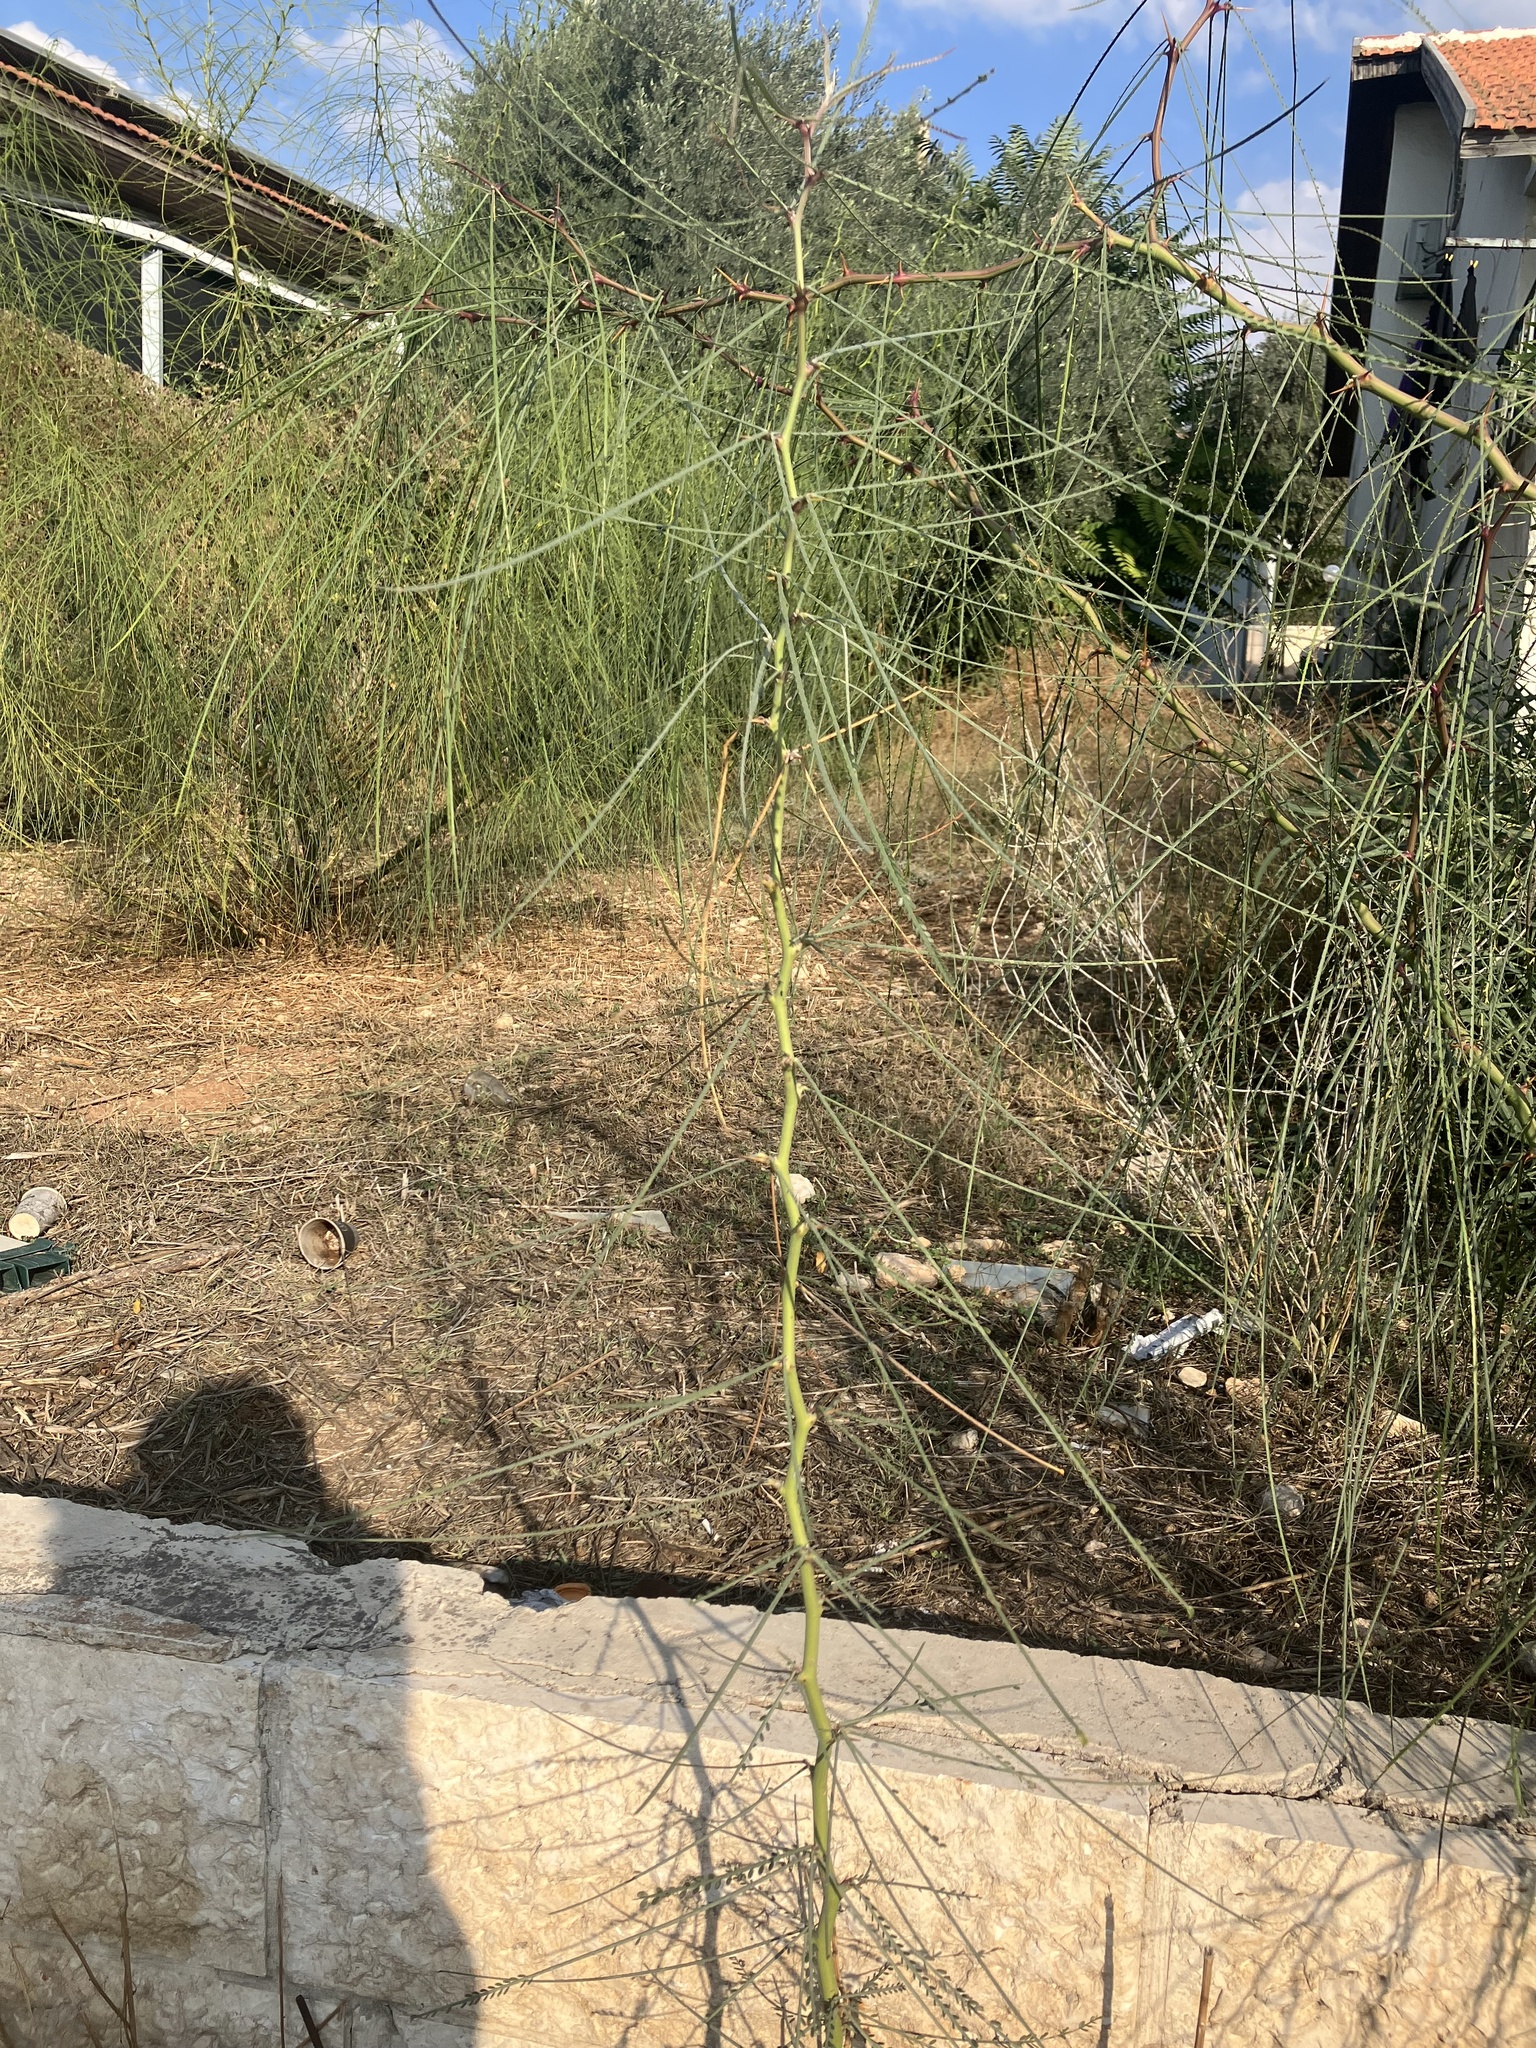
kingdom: Plantae
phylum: Tracheophyta
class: Magnoliopsida
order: Fabales
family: Fabaceae
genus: Parkinsonia
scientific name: Parkinsonia aculeata
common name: Jerusalem thorn
